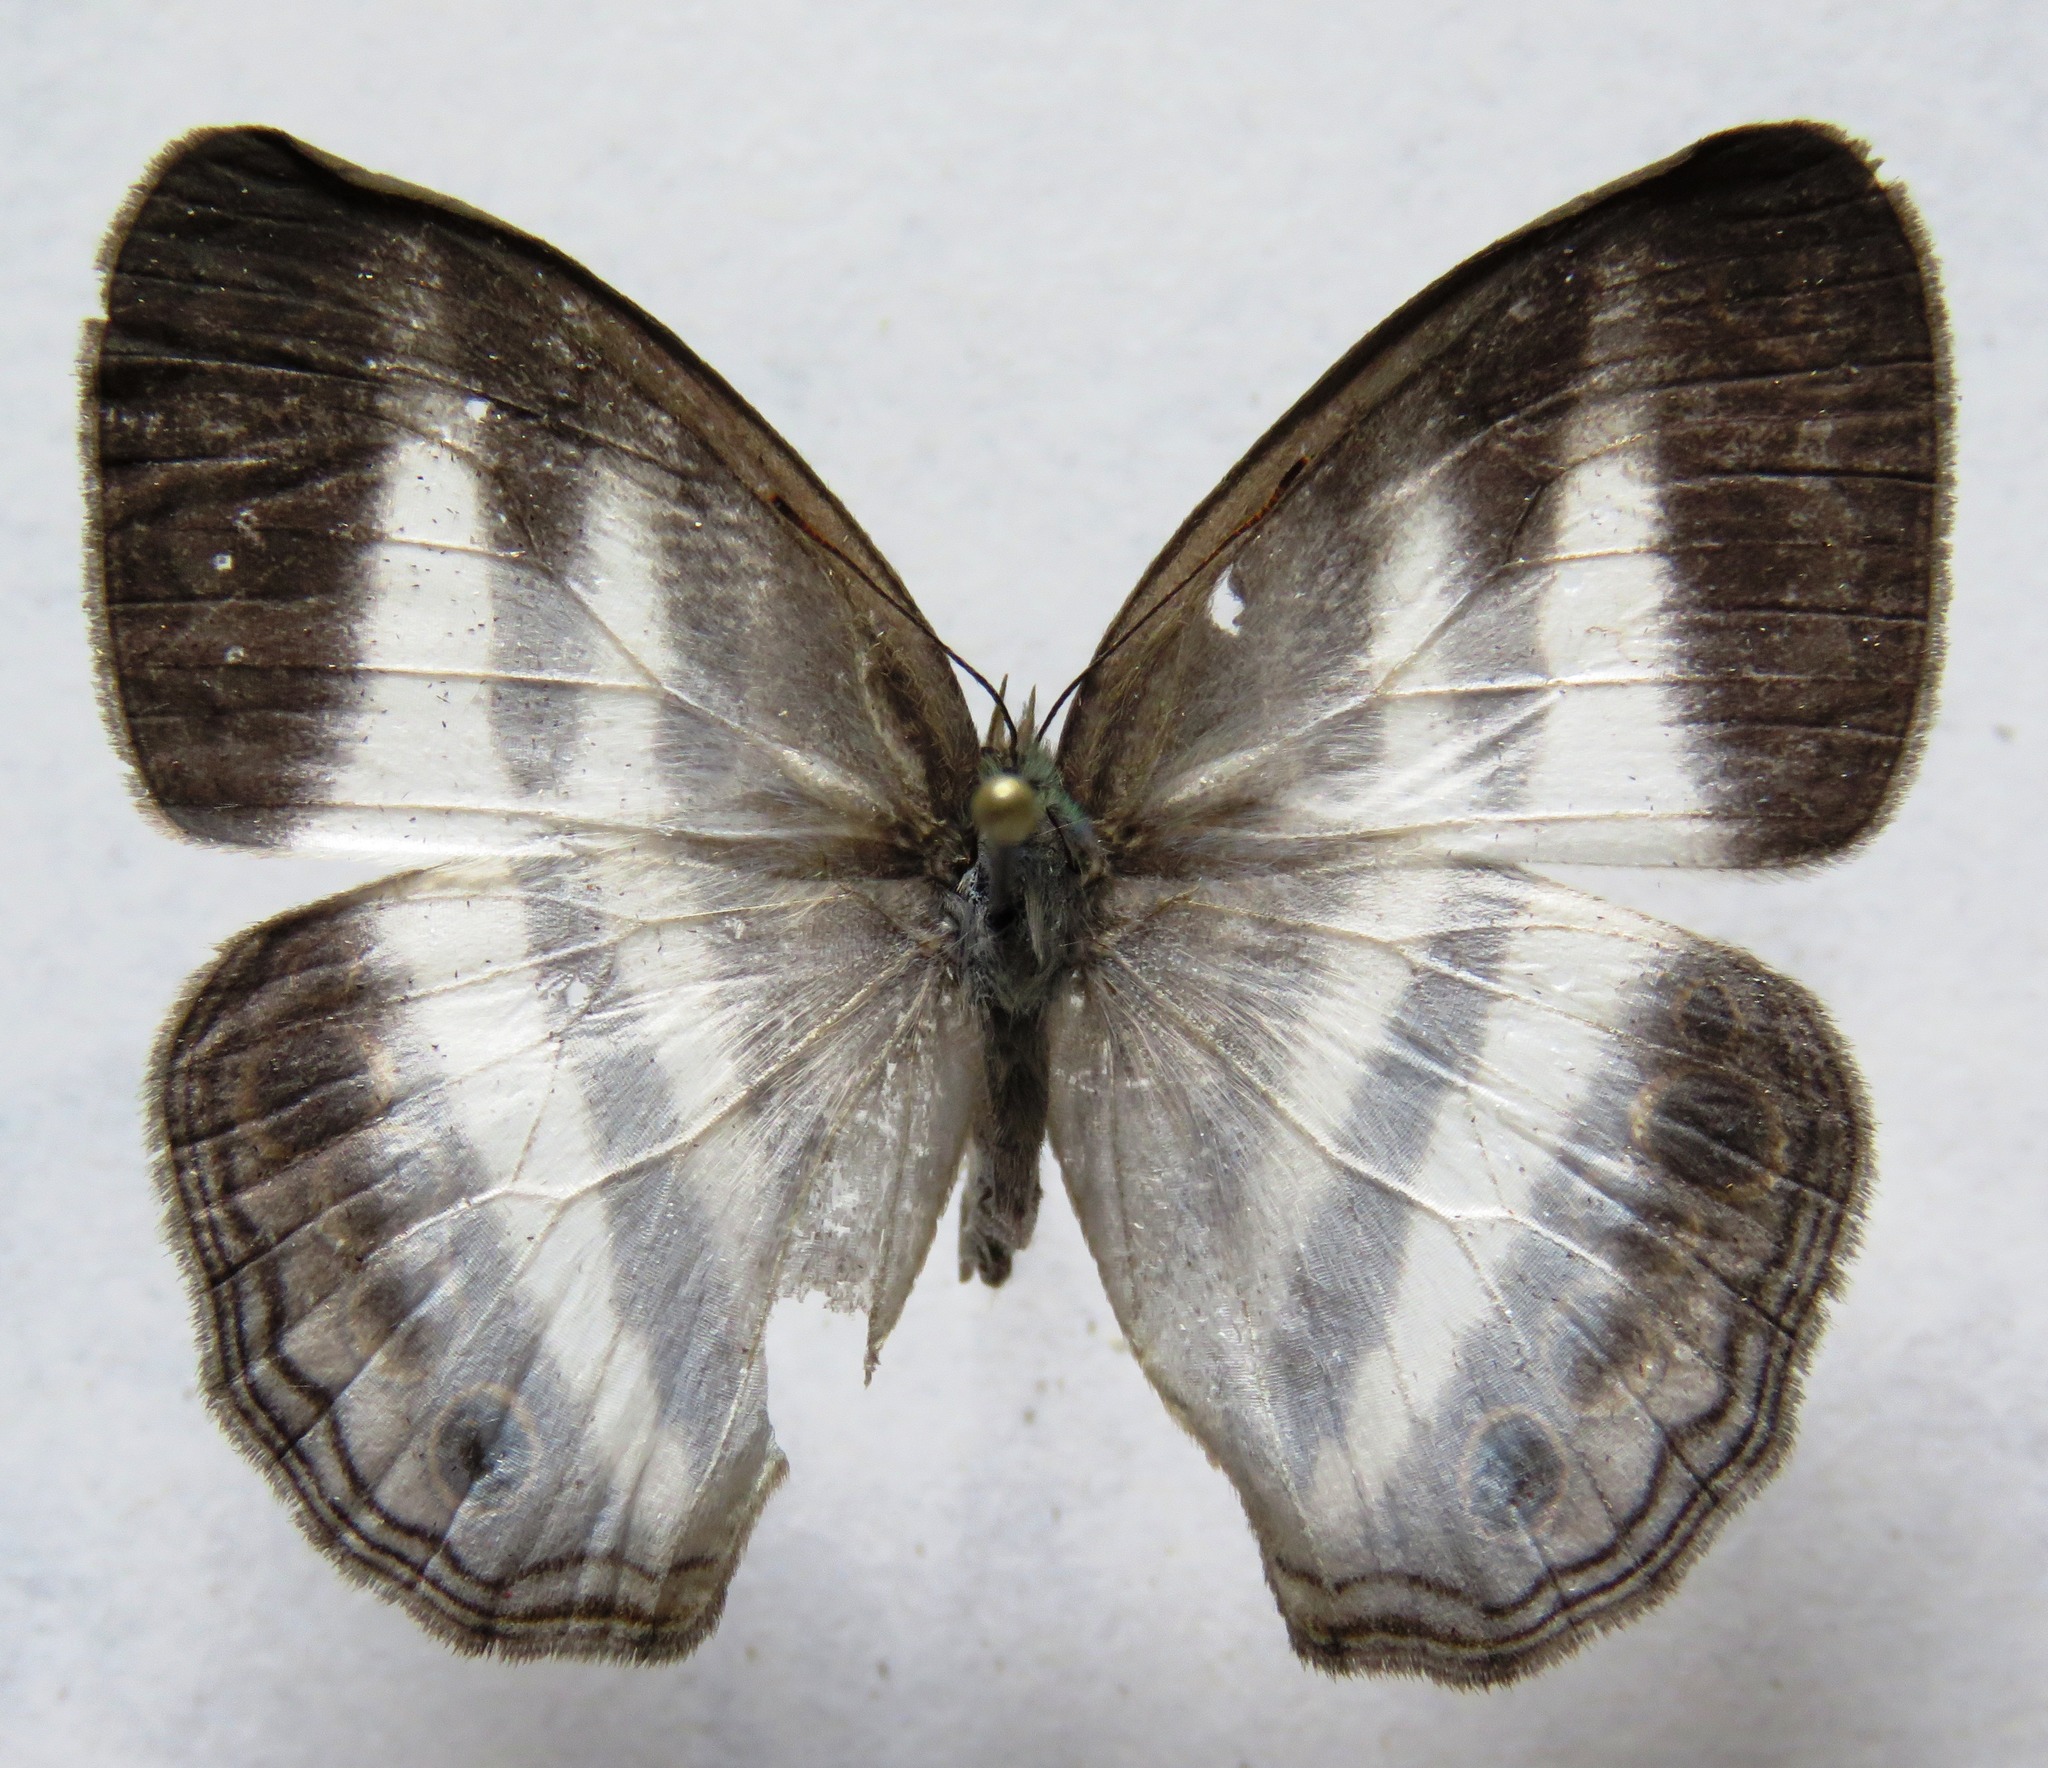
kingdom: Animalia
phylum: Arthropoda
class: Insecta
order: Lepidoptera
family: Nymphalidae
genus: Pareuptychia
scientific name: Pareuptychia hesione
